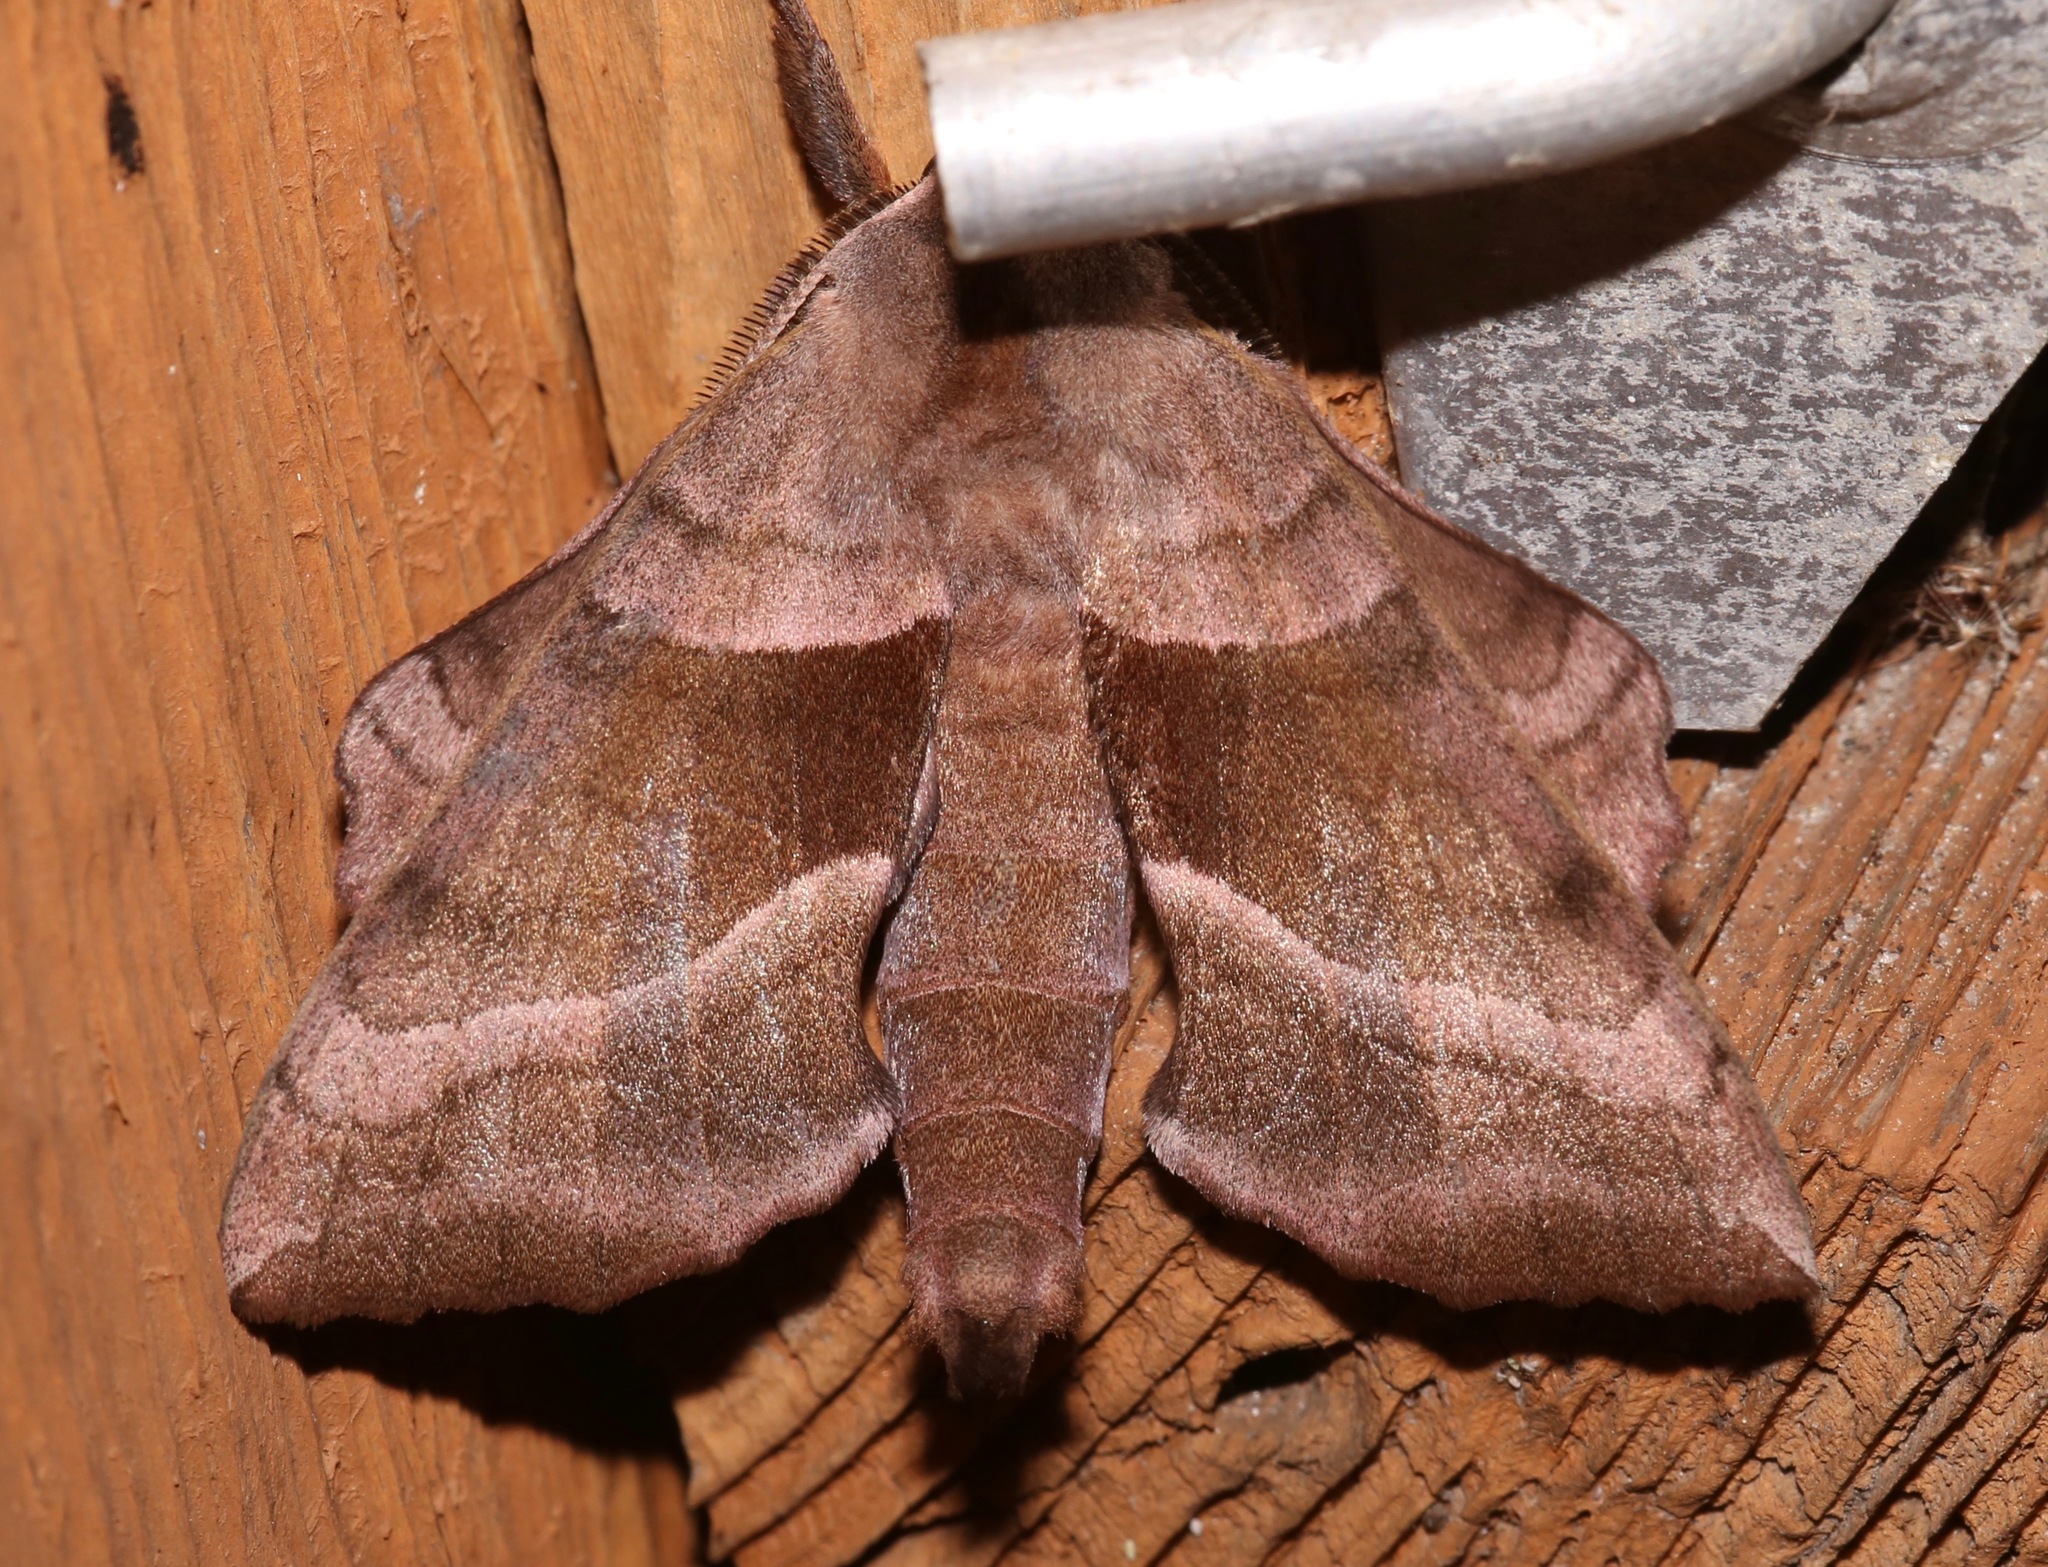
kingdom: Animalia
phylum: Arthropoda
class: Insecta
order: Lepidoptera
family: Sphingidae
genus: Amorpha
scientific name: Amorpha juglandis
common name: Walnut sphinx
